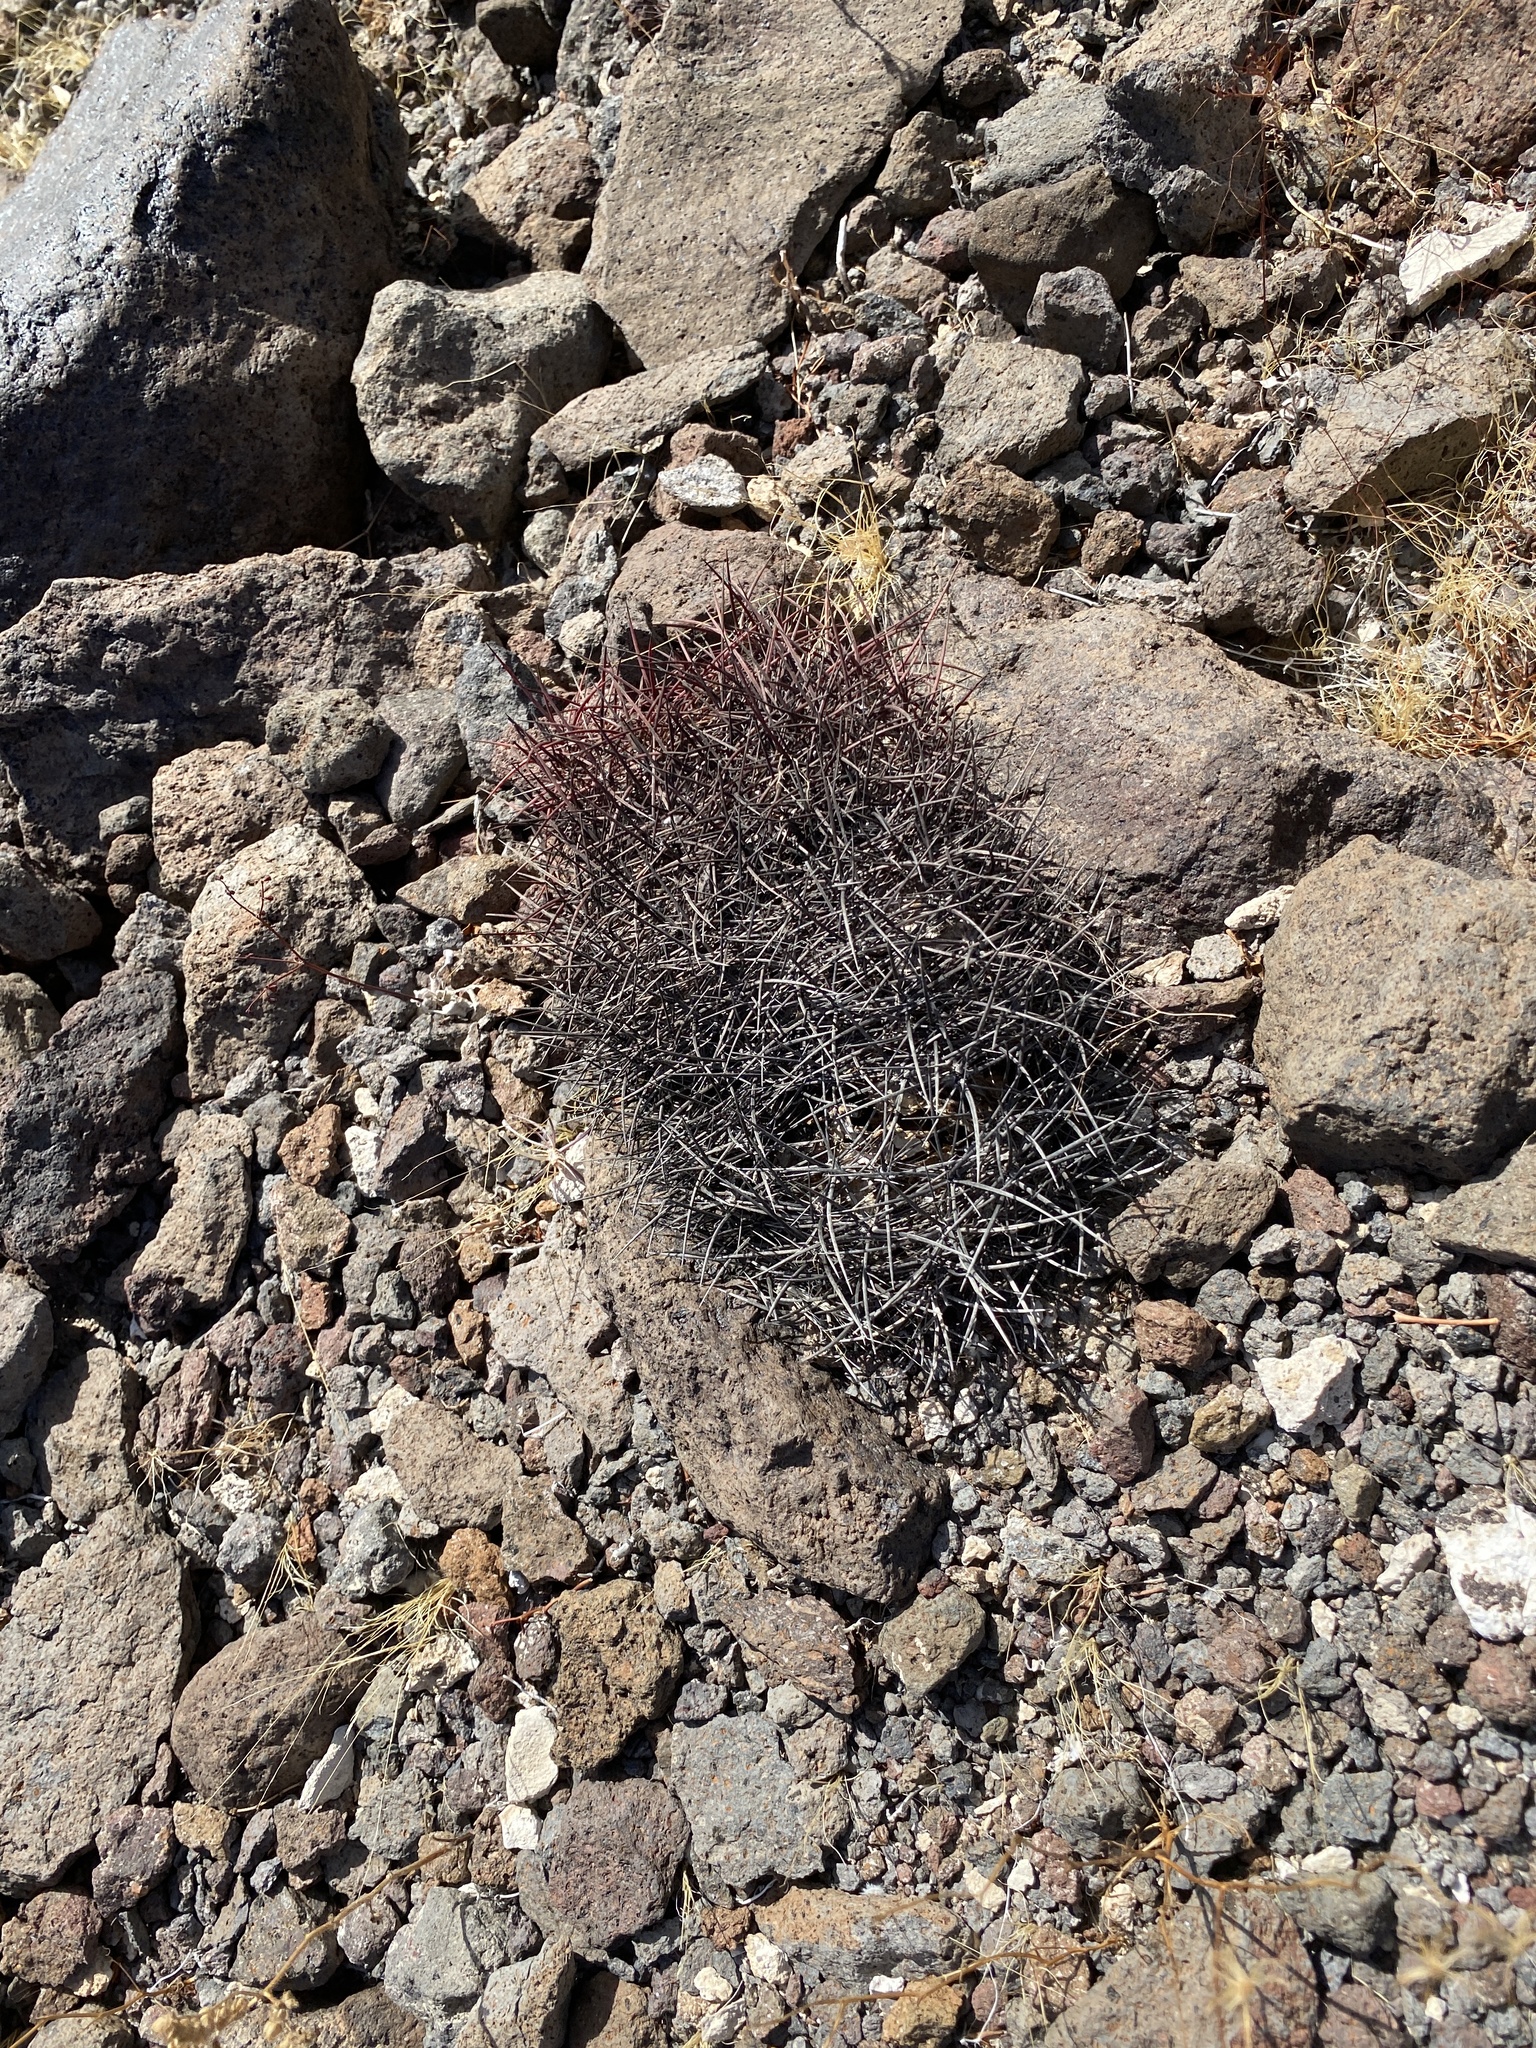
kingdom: Plantae
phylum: Tracheophyta
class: Magnoliopsida
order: Caryophyllales
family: Cactaceae
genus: Sclerocactus
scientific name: Sclerocactus johnsonii
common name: Eight-spine fishhook cactus
